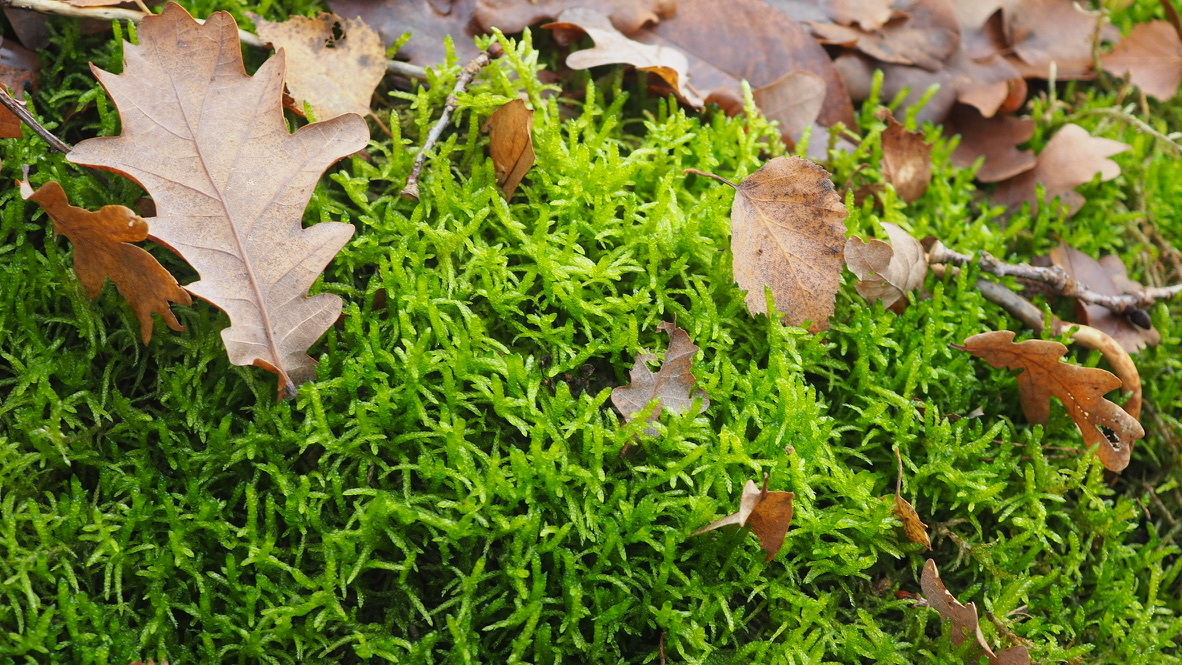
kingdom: Plantae
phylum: Bryophyta
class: Bryopsida
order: Hypnales
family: Brachytheciaceae
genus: Pseudoscleropodium
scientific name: Pseudoscleropodium purum
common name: Neat feather-moss
